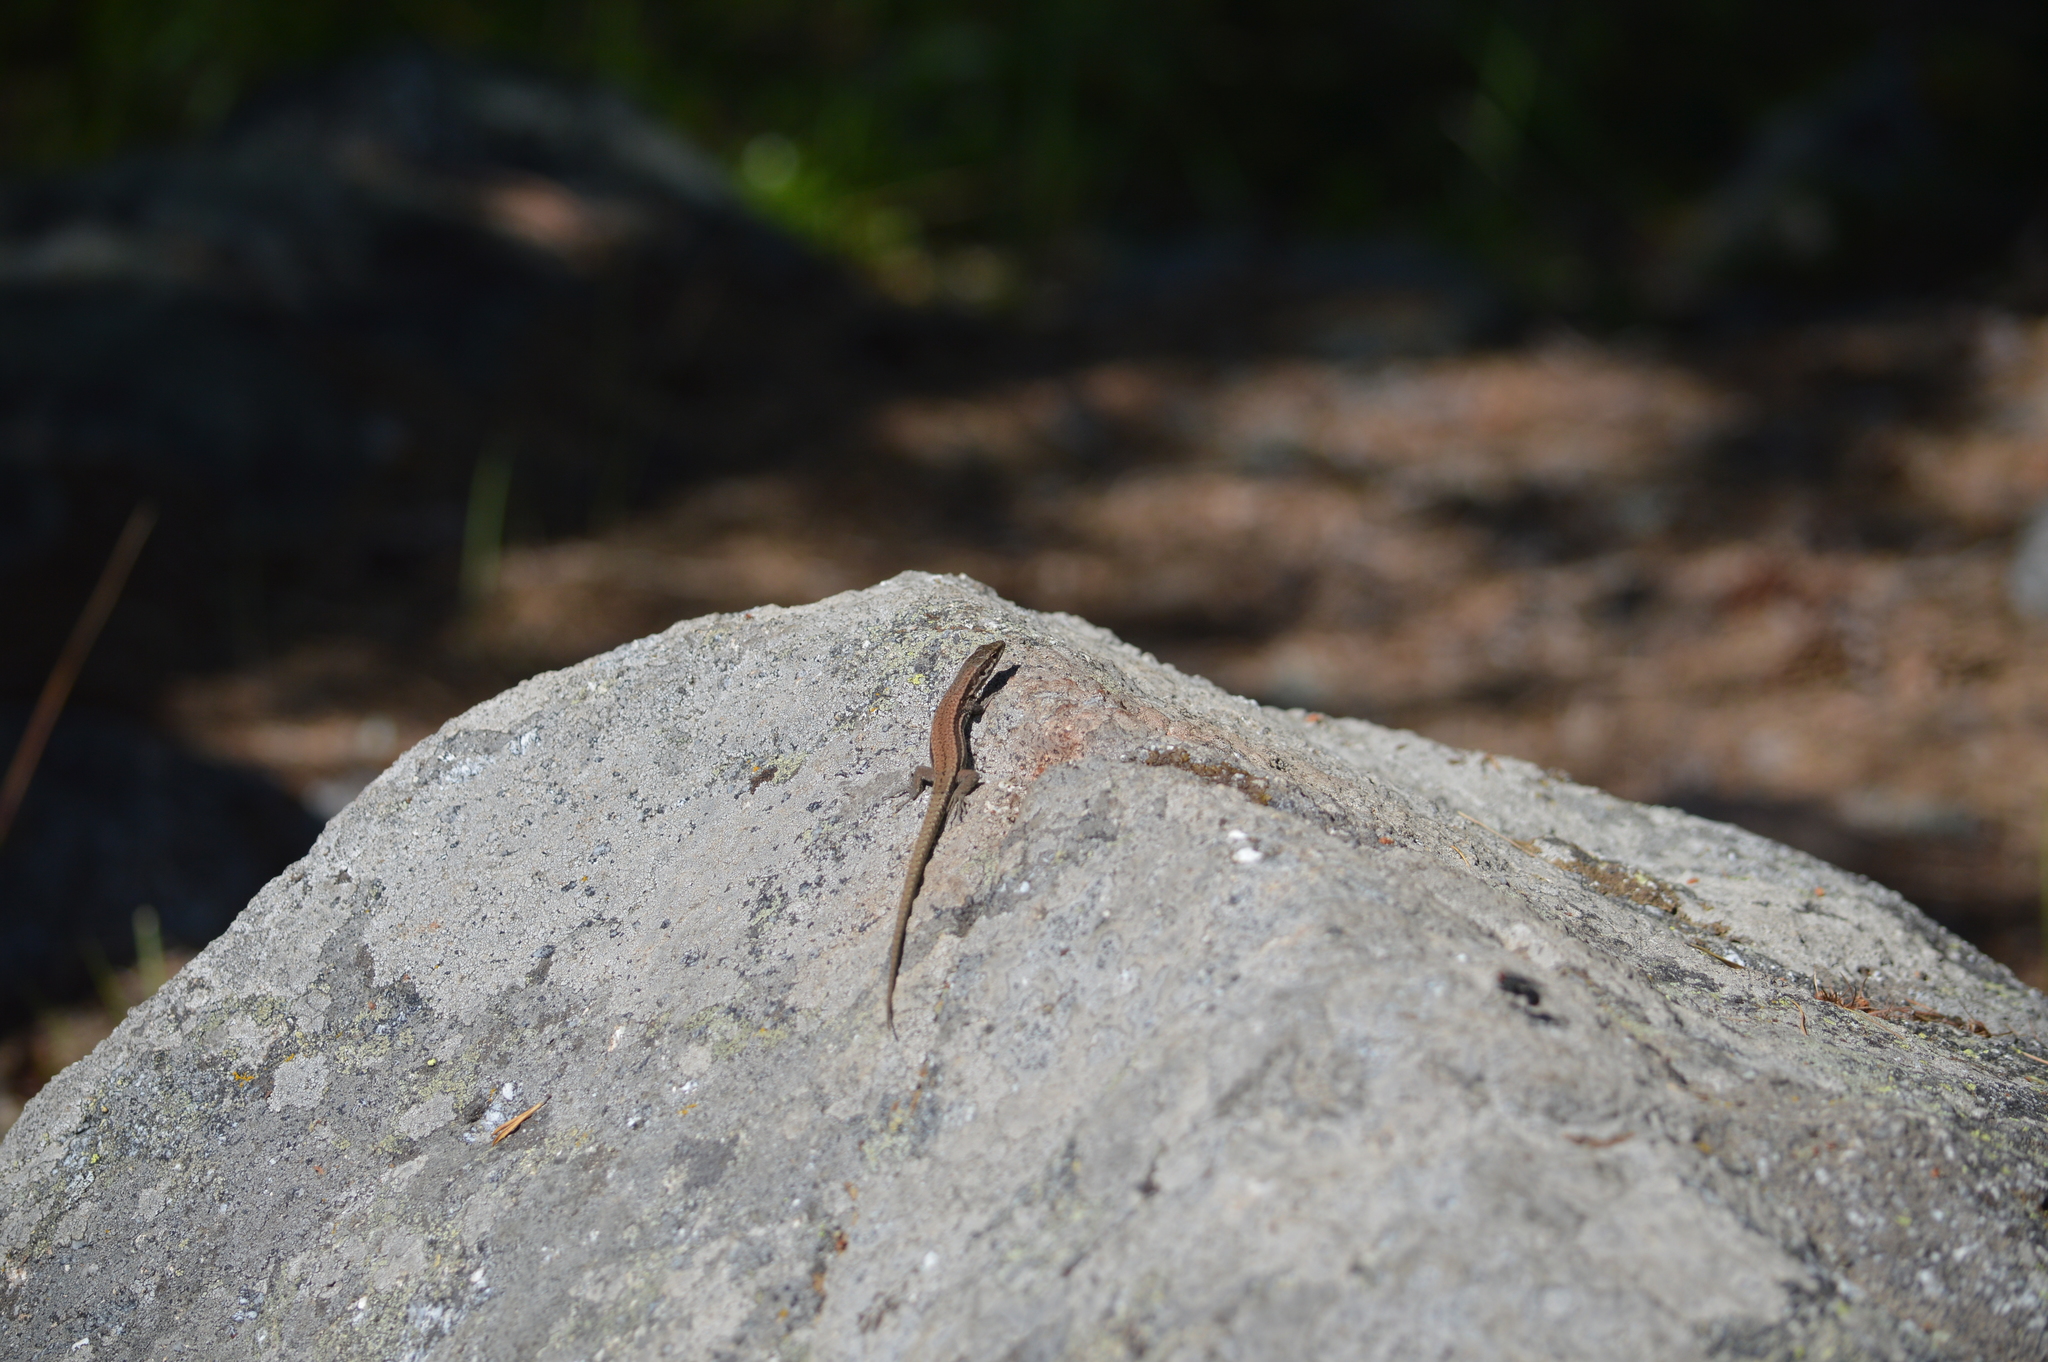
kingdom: Animalia
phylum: Chordata
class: Squamata
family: Lacertidae
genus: Podarcis
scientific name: Podarcis muralis
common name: Common wall lizard
